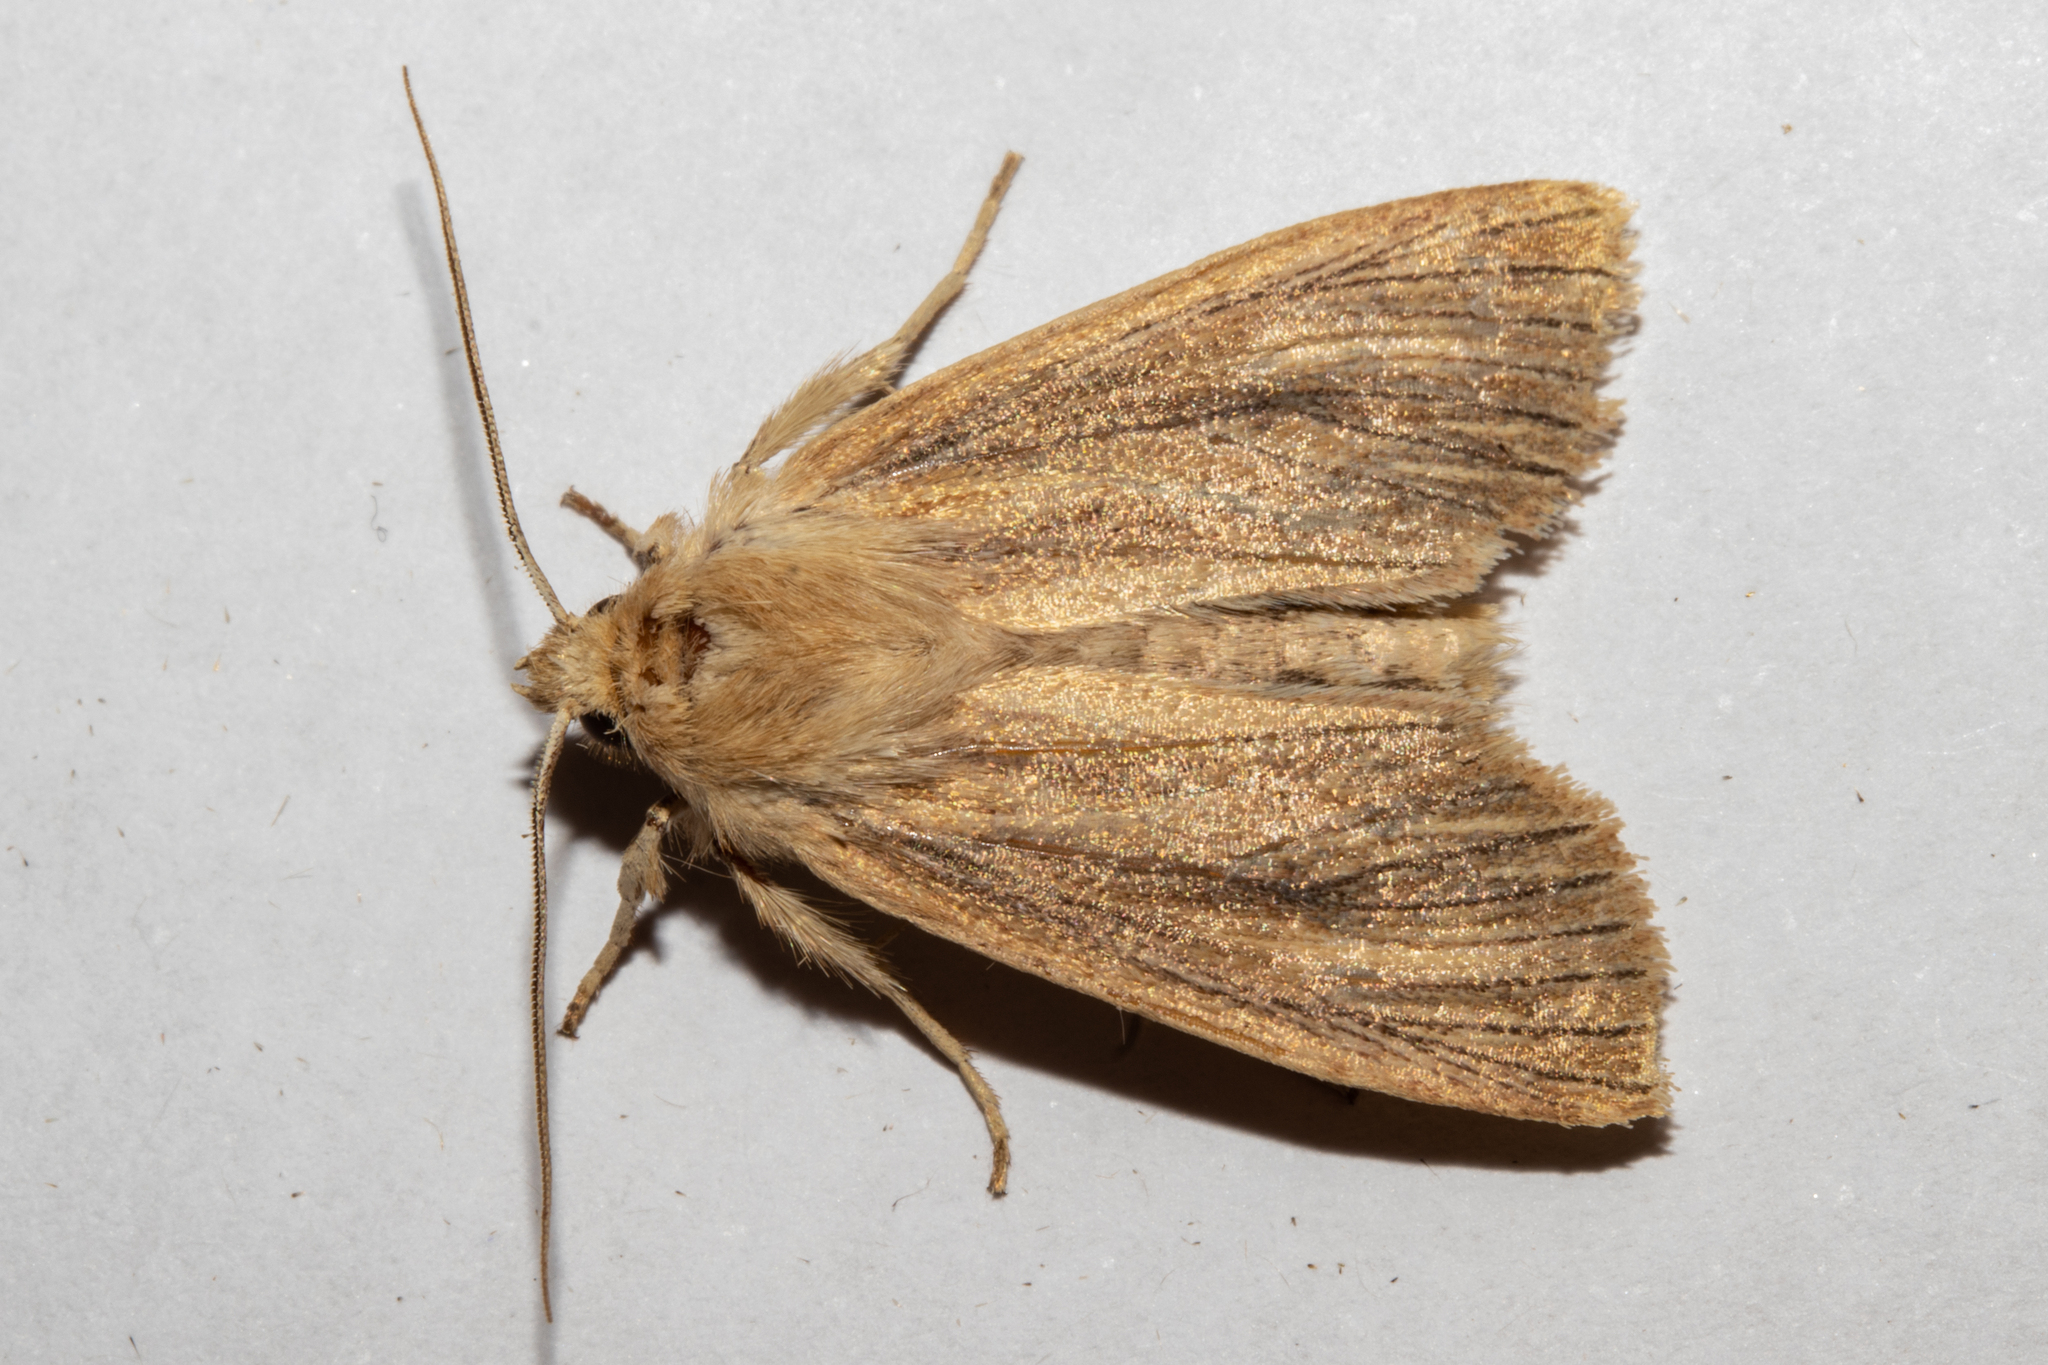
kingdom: Animalia
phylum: Arthropoda
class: Insecta
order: Lepidoptera
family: Noctuidae
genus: Ichneutica
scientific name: Ichneutica arotis
